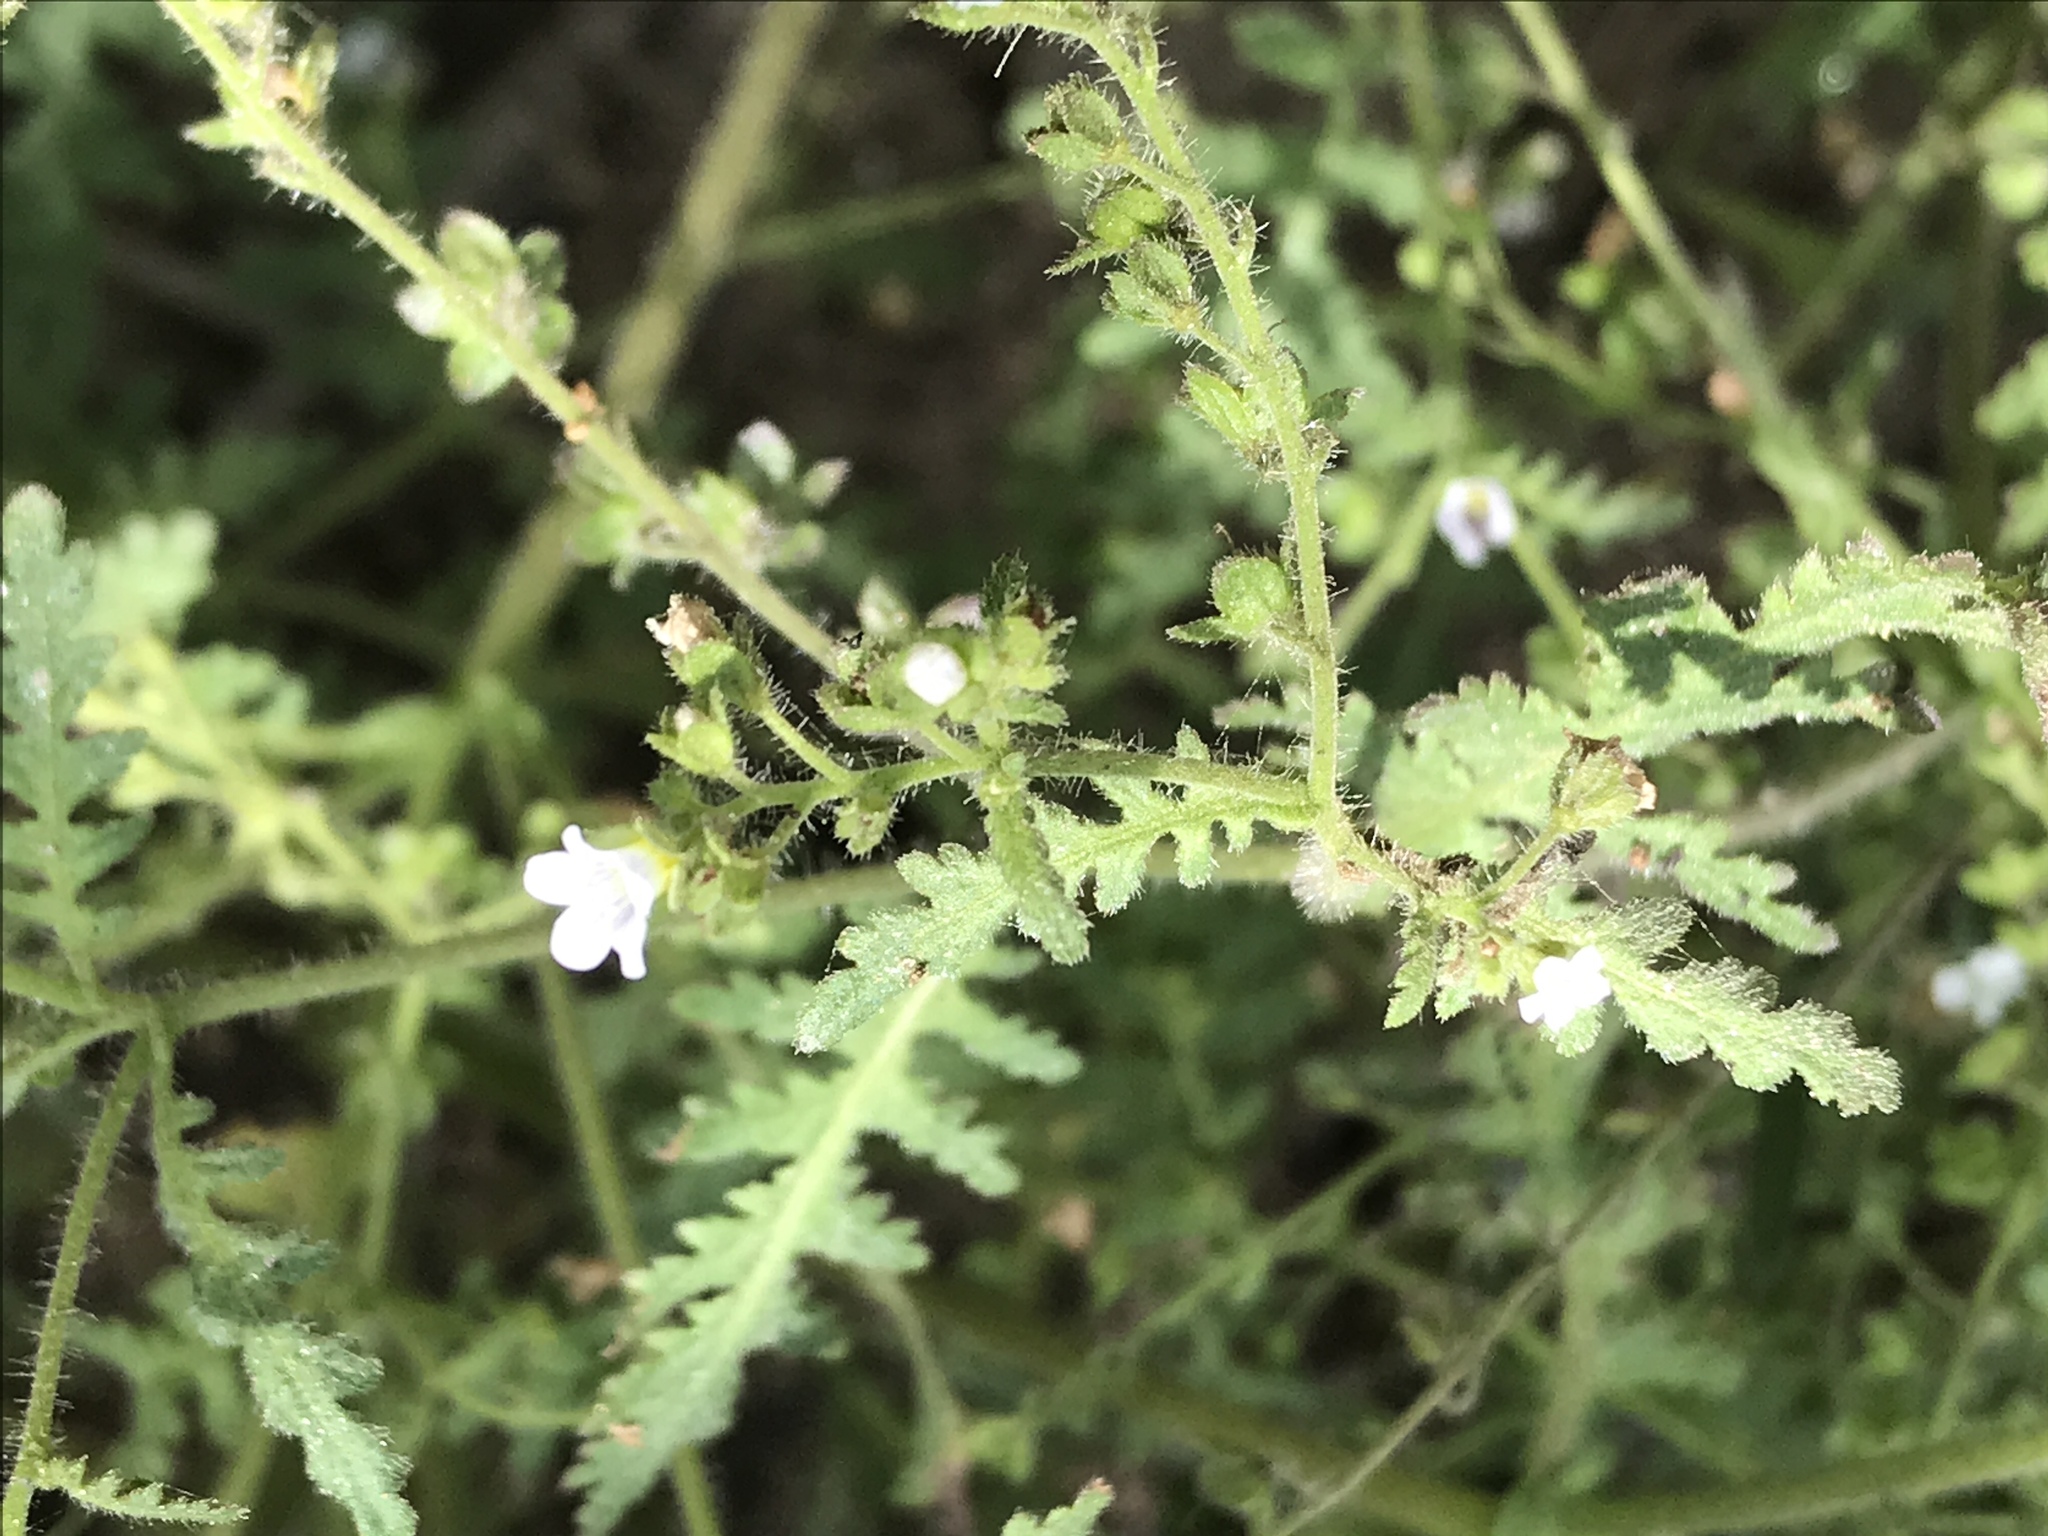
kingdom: Plantae
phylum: Tracheophyta
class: Magnoliopsida
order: Boraginales
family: Hydrophyllaceae
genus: Eucrypta
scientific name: Eucrypta chrysanthemifolia
